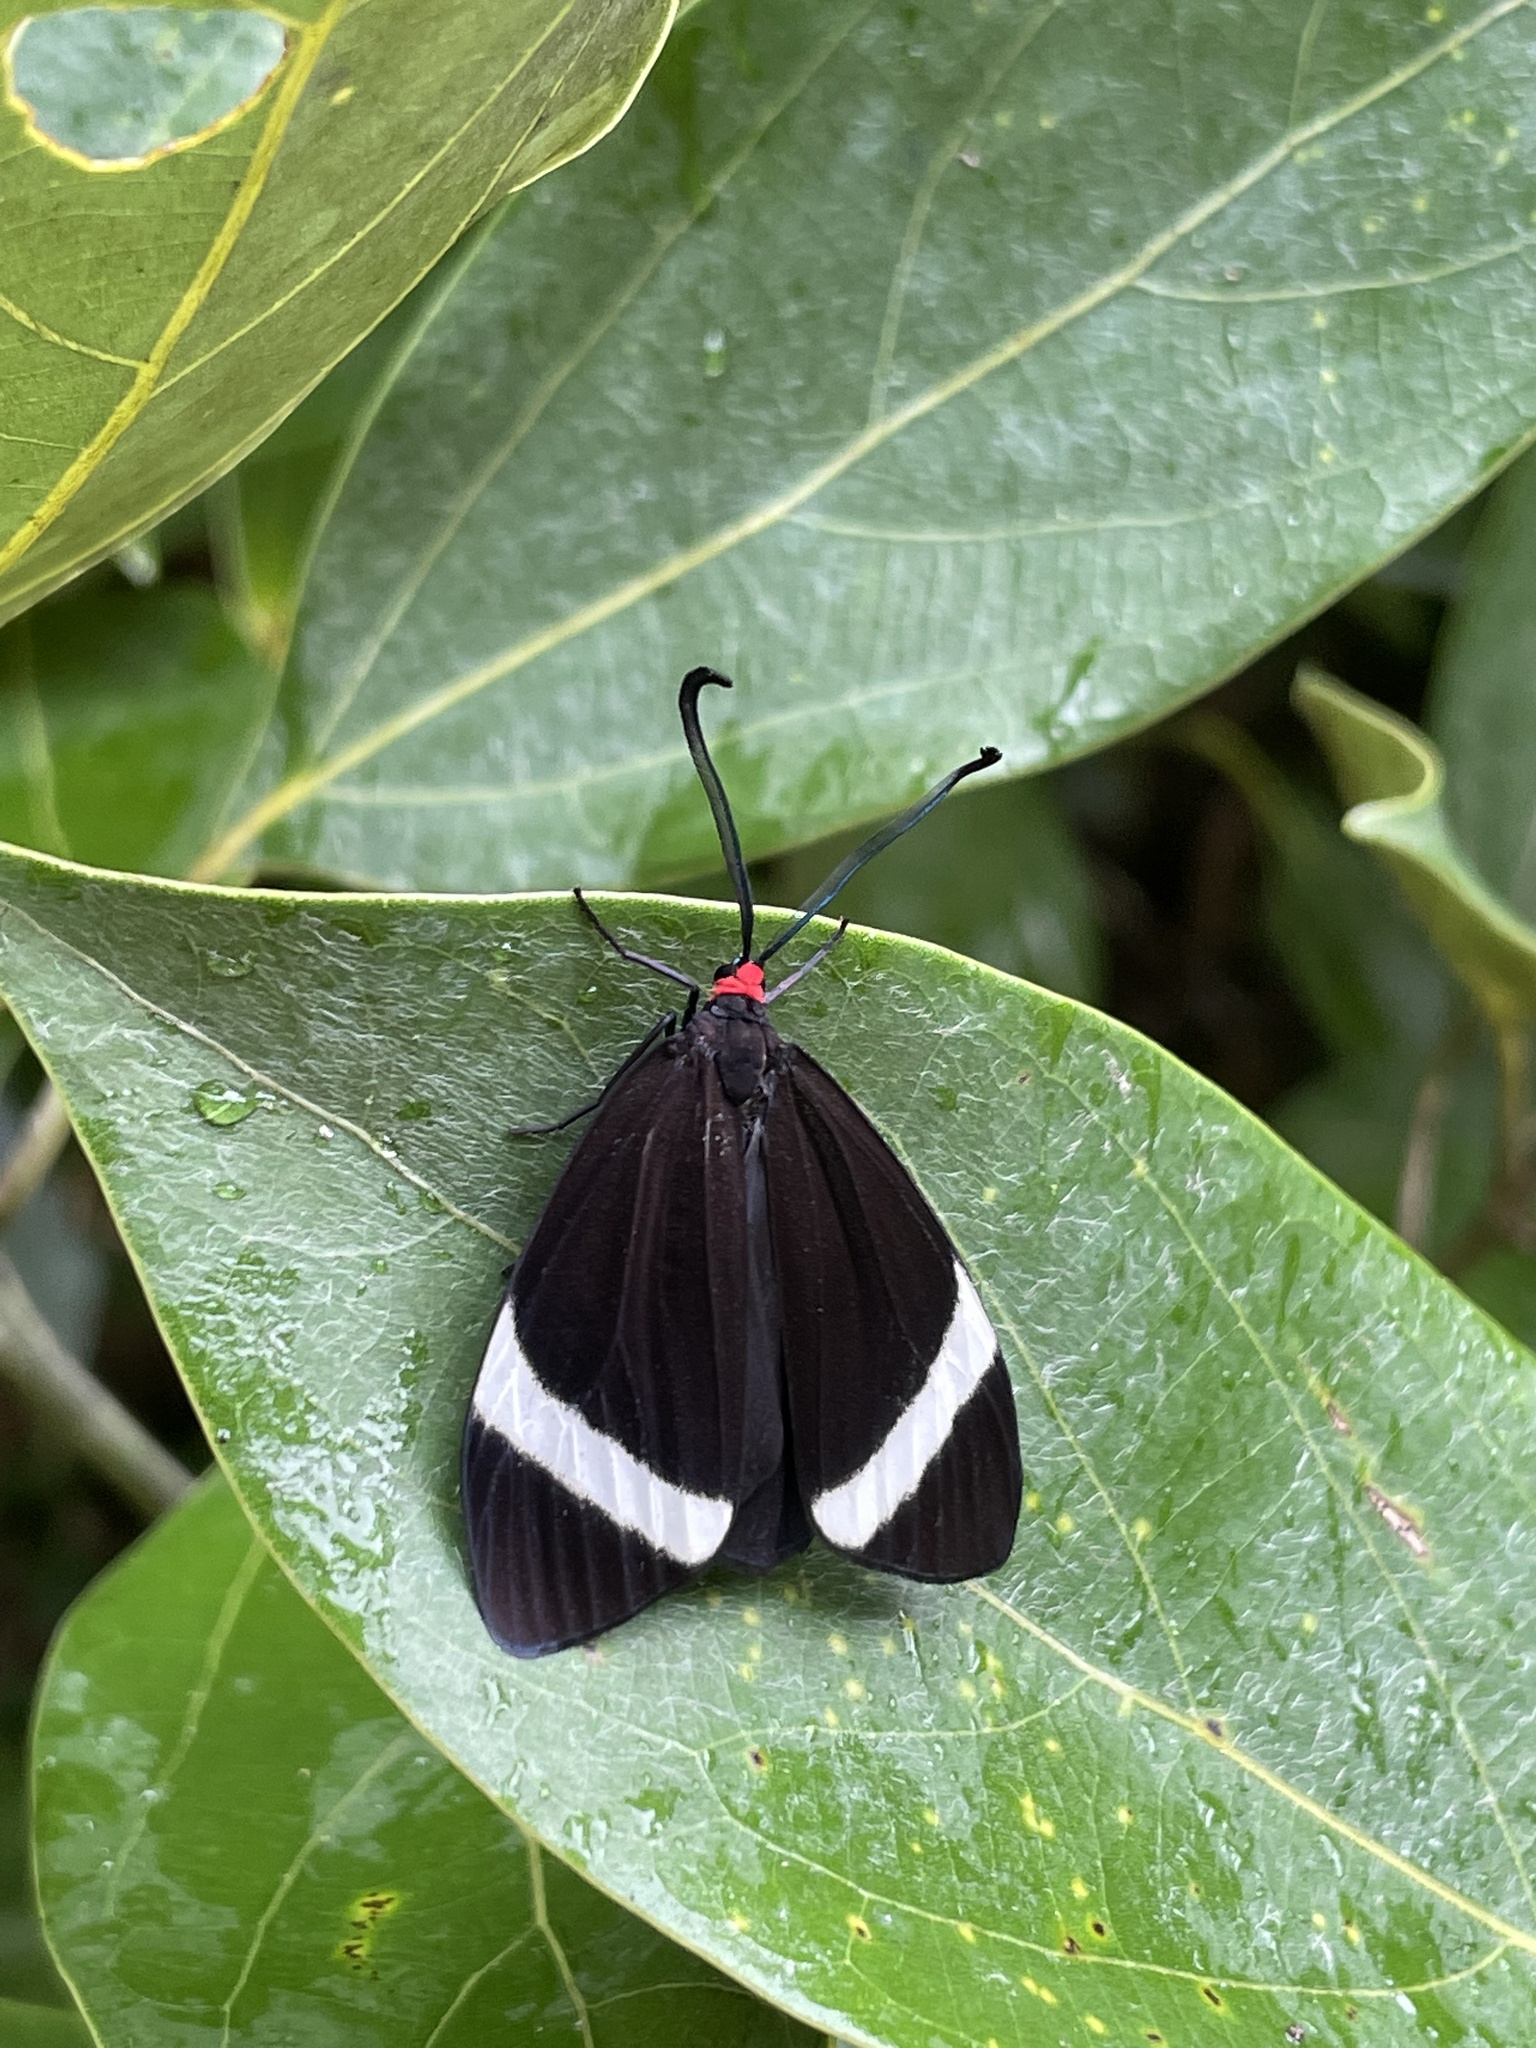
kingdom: Animalia
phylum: Arthropoda
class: Insecta
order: Lepidoptera
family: Zygaenidae
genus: Pidorus
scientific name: Pidorus glaucopis
